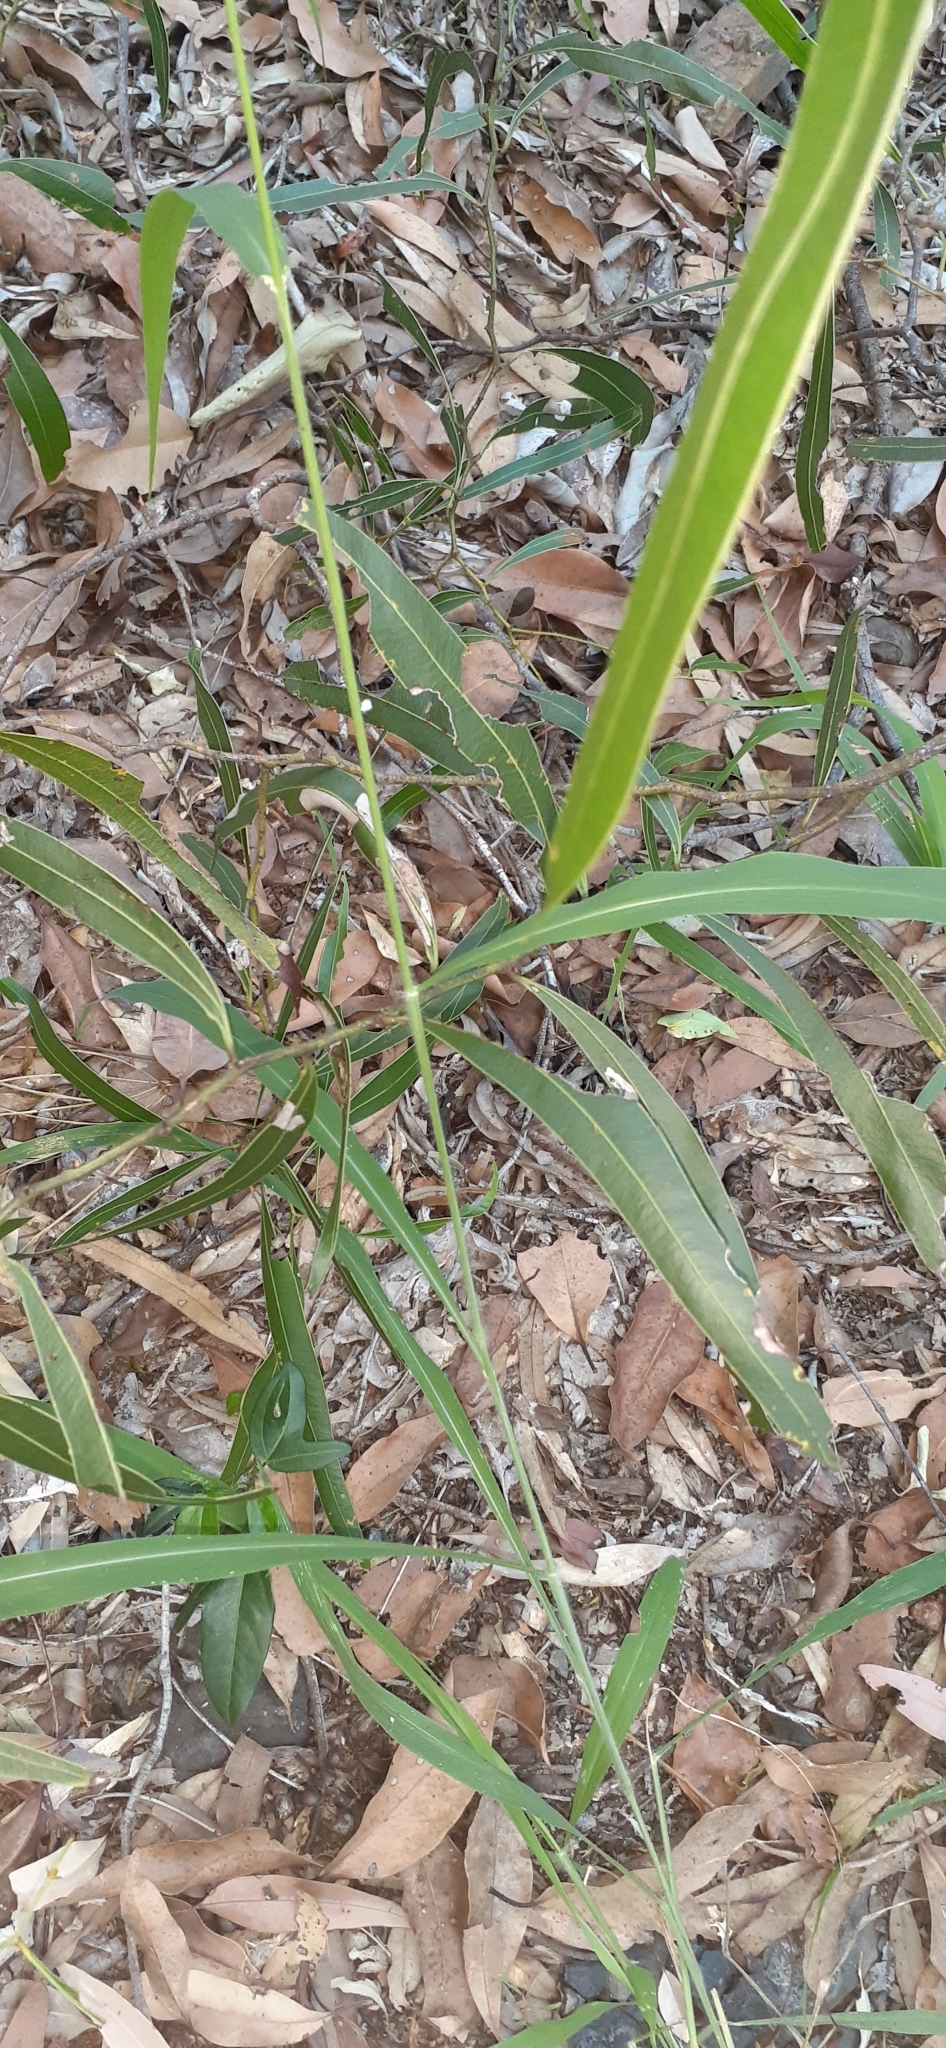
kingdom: Plantae
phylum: Tracheophyta
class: Magnoliopsida
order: Fabales
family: Fabaceae
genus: Acacia
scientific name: Acacia macradenia
